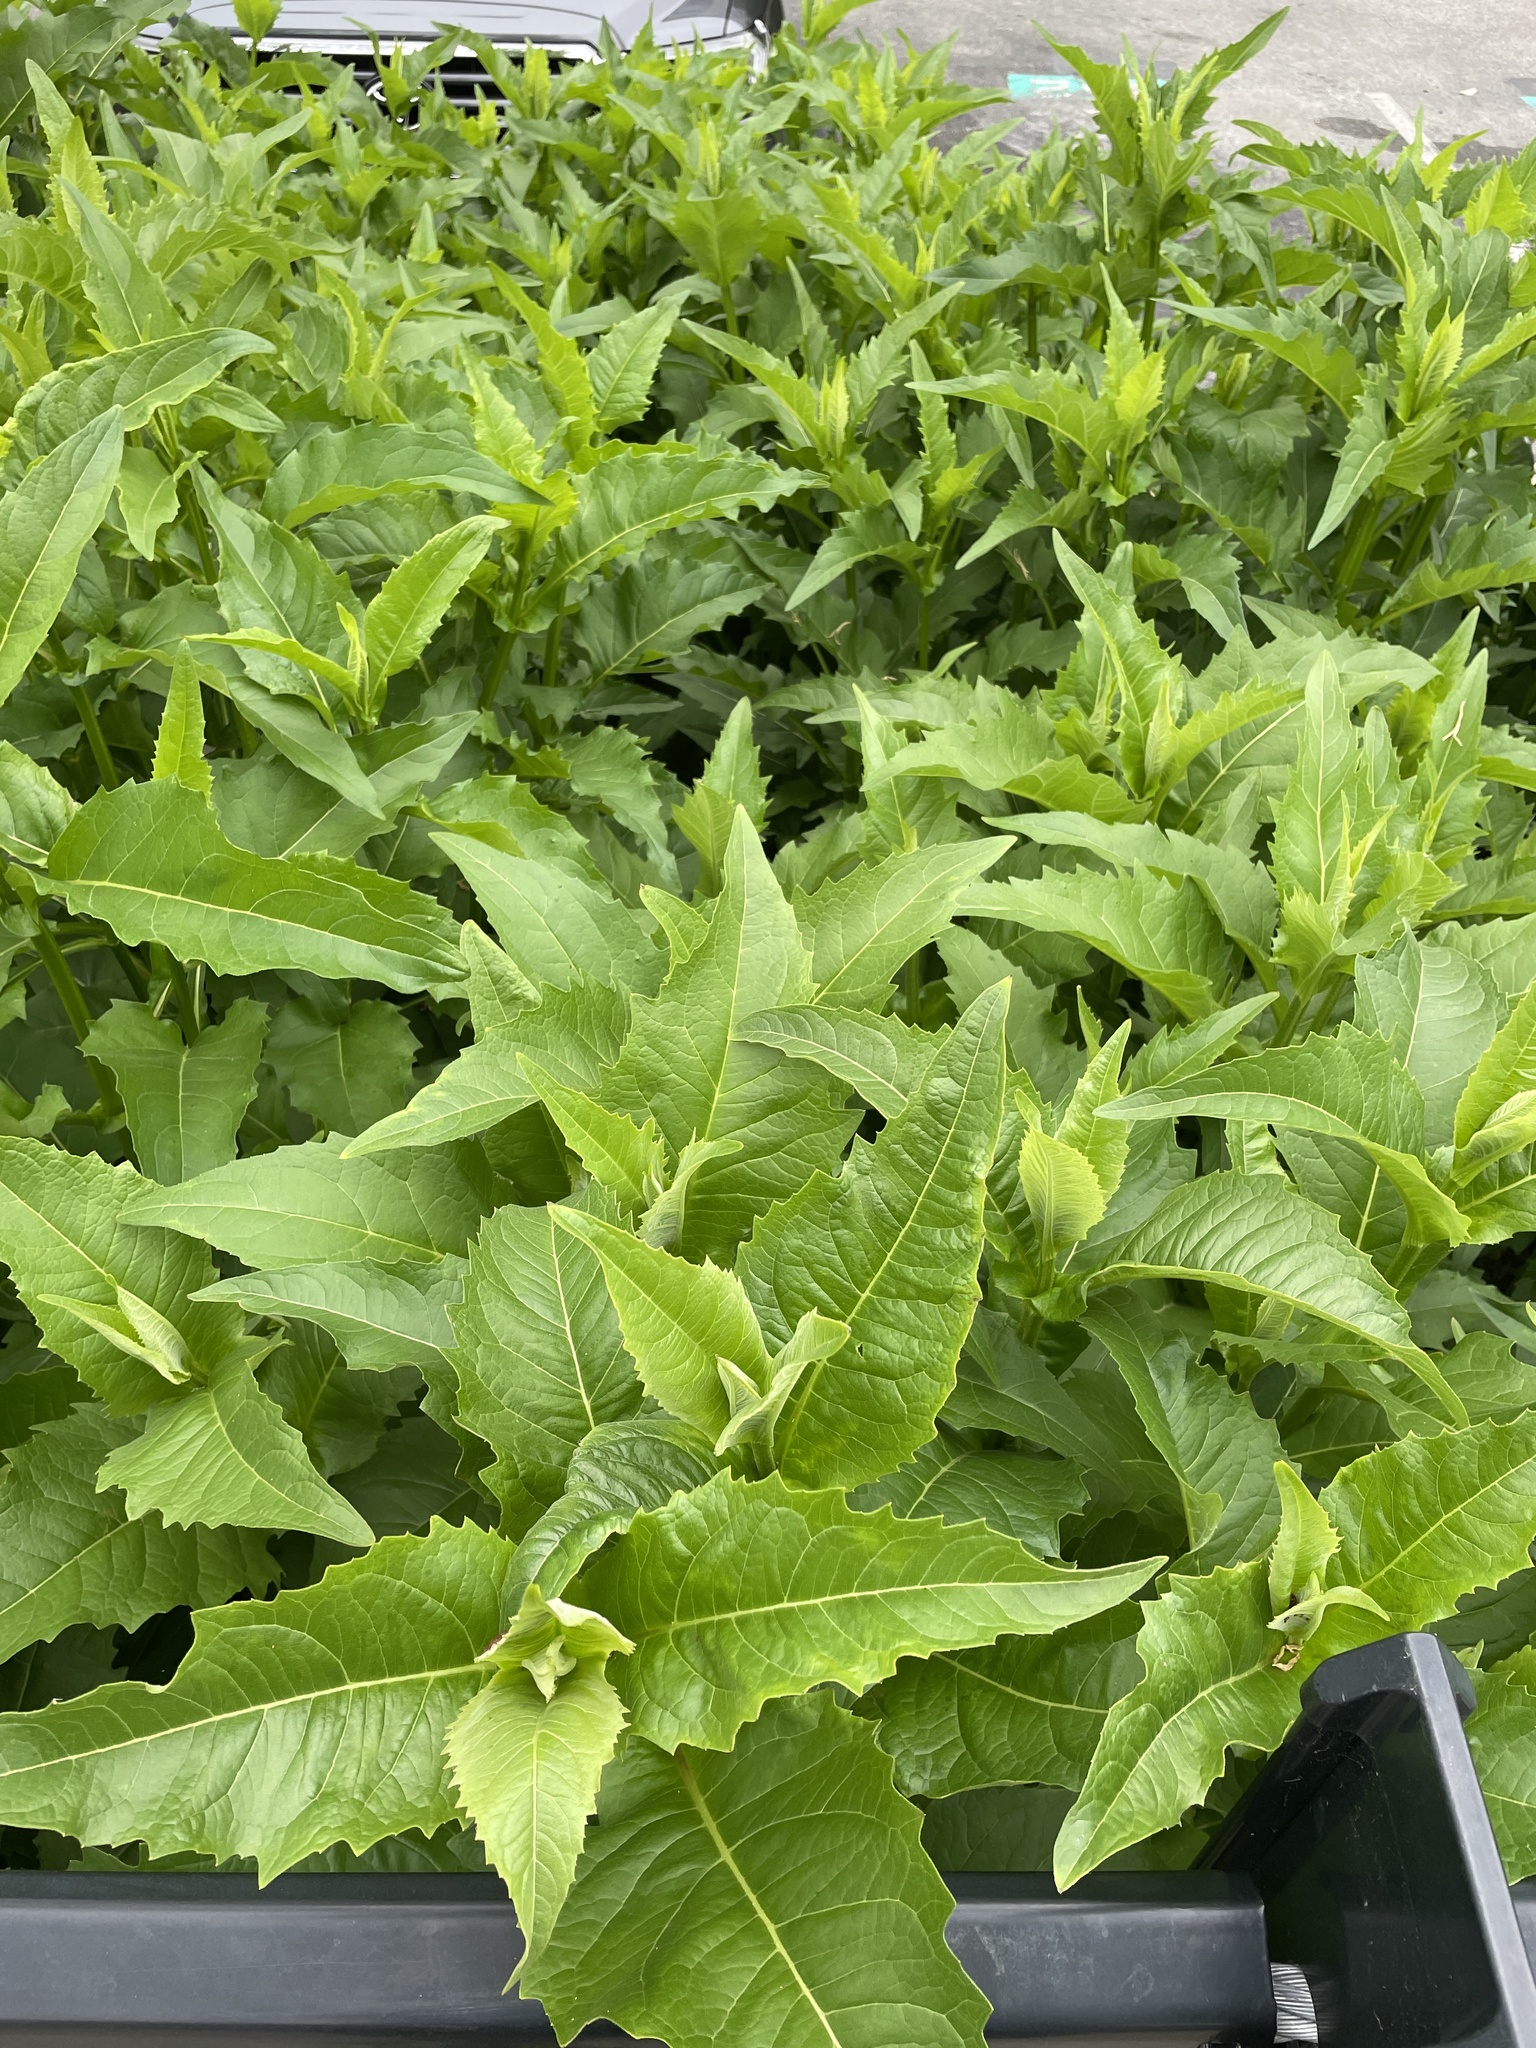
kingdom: Plantae
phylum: Tracheophyta
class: Magnoliopsida
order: Asterales
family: Asteraceae
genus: Silphium
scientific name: Silphium perfoliatum
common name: Cup-plant
